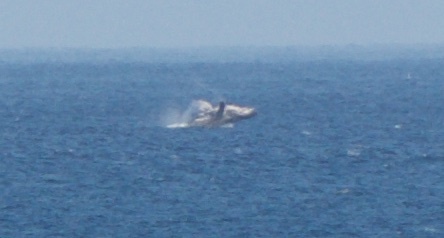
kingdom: Animalia
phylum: Chordata
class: Mammalia
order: Cetacea
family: Balaenopteridae
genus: Megaptera
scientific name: Megaptera novaeangliae
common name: Humpback whale
